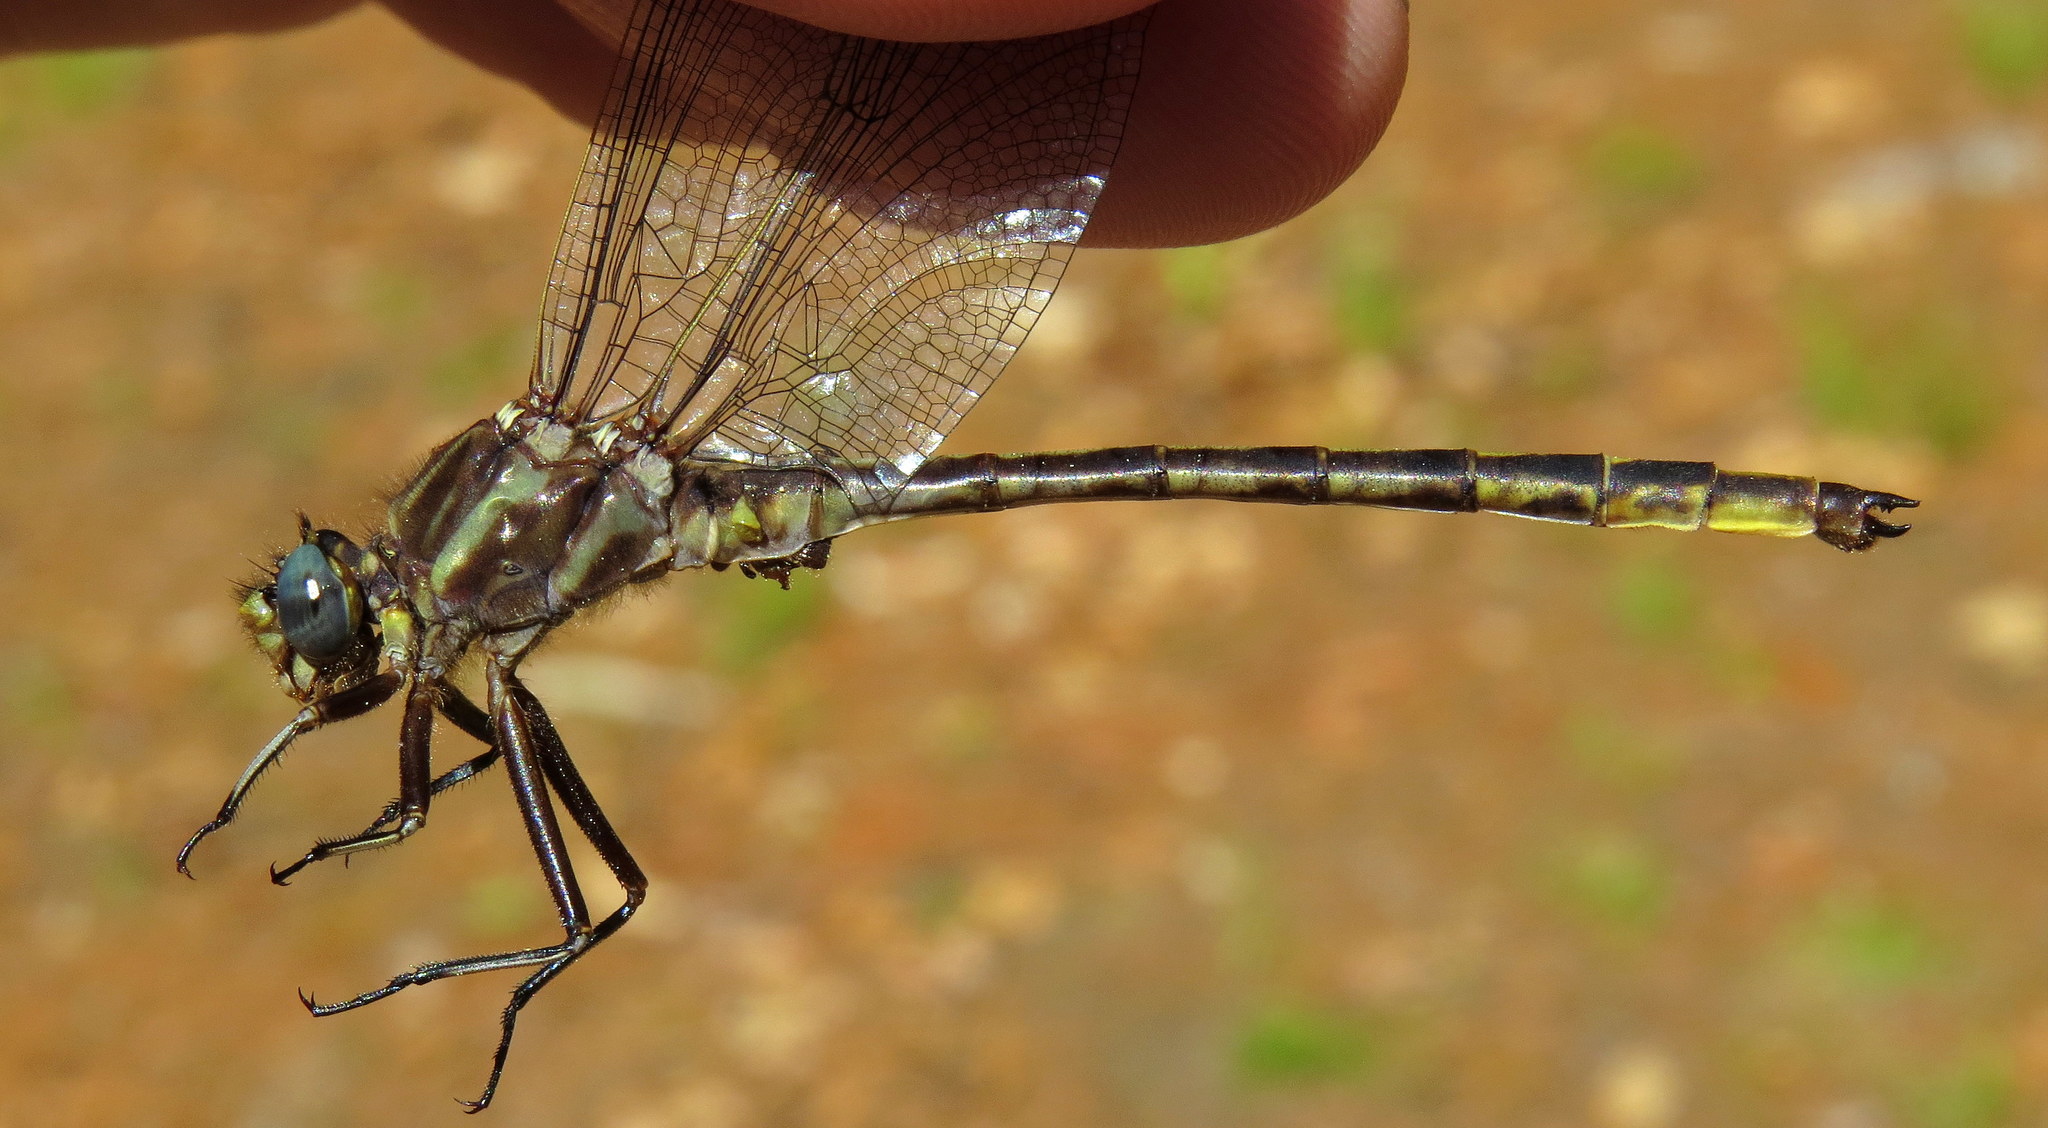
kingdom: Animalia
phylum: Arthropoda
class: Insecta
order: Odonata
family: Gomphidae
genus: Phanogomphus
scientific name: Phanogomphus spicatus
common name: Dusky clubtail
